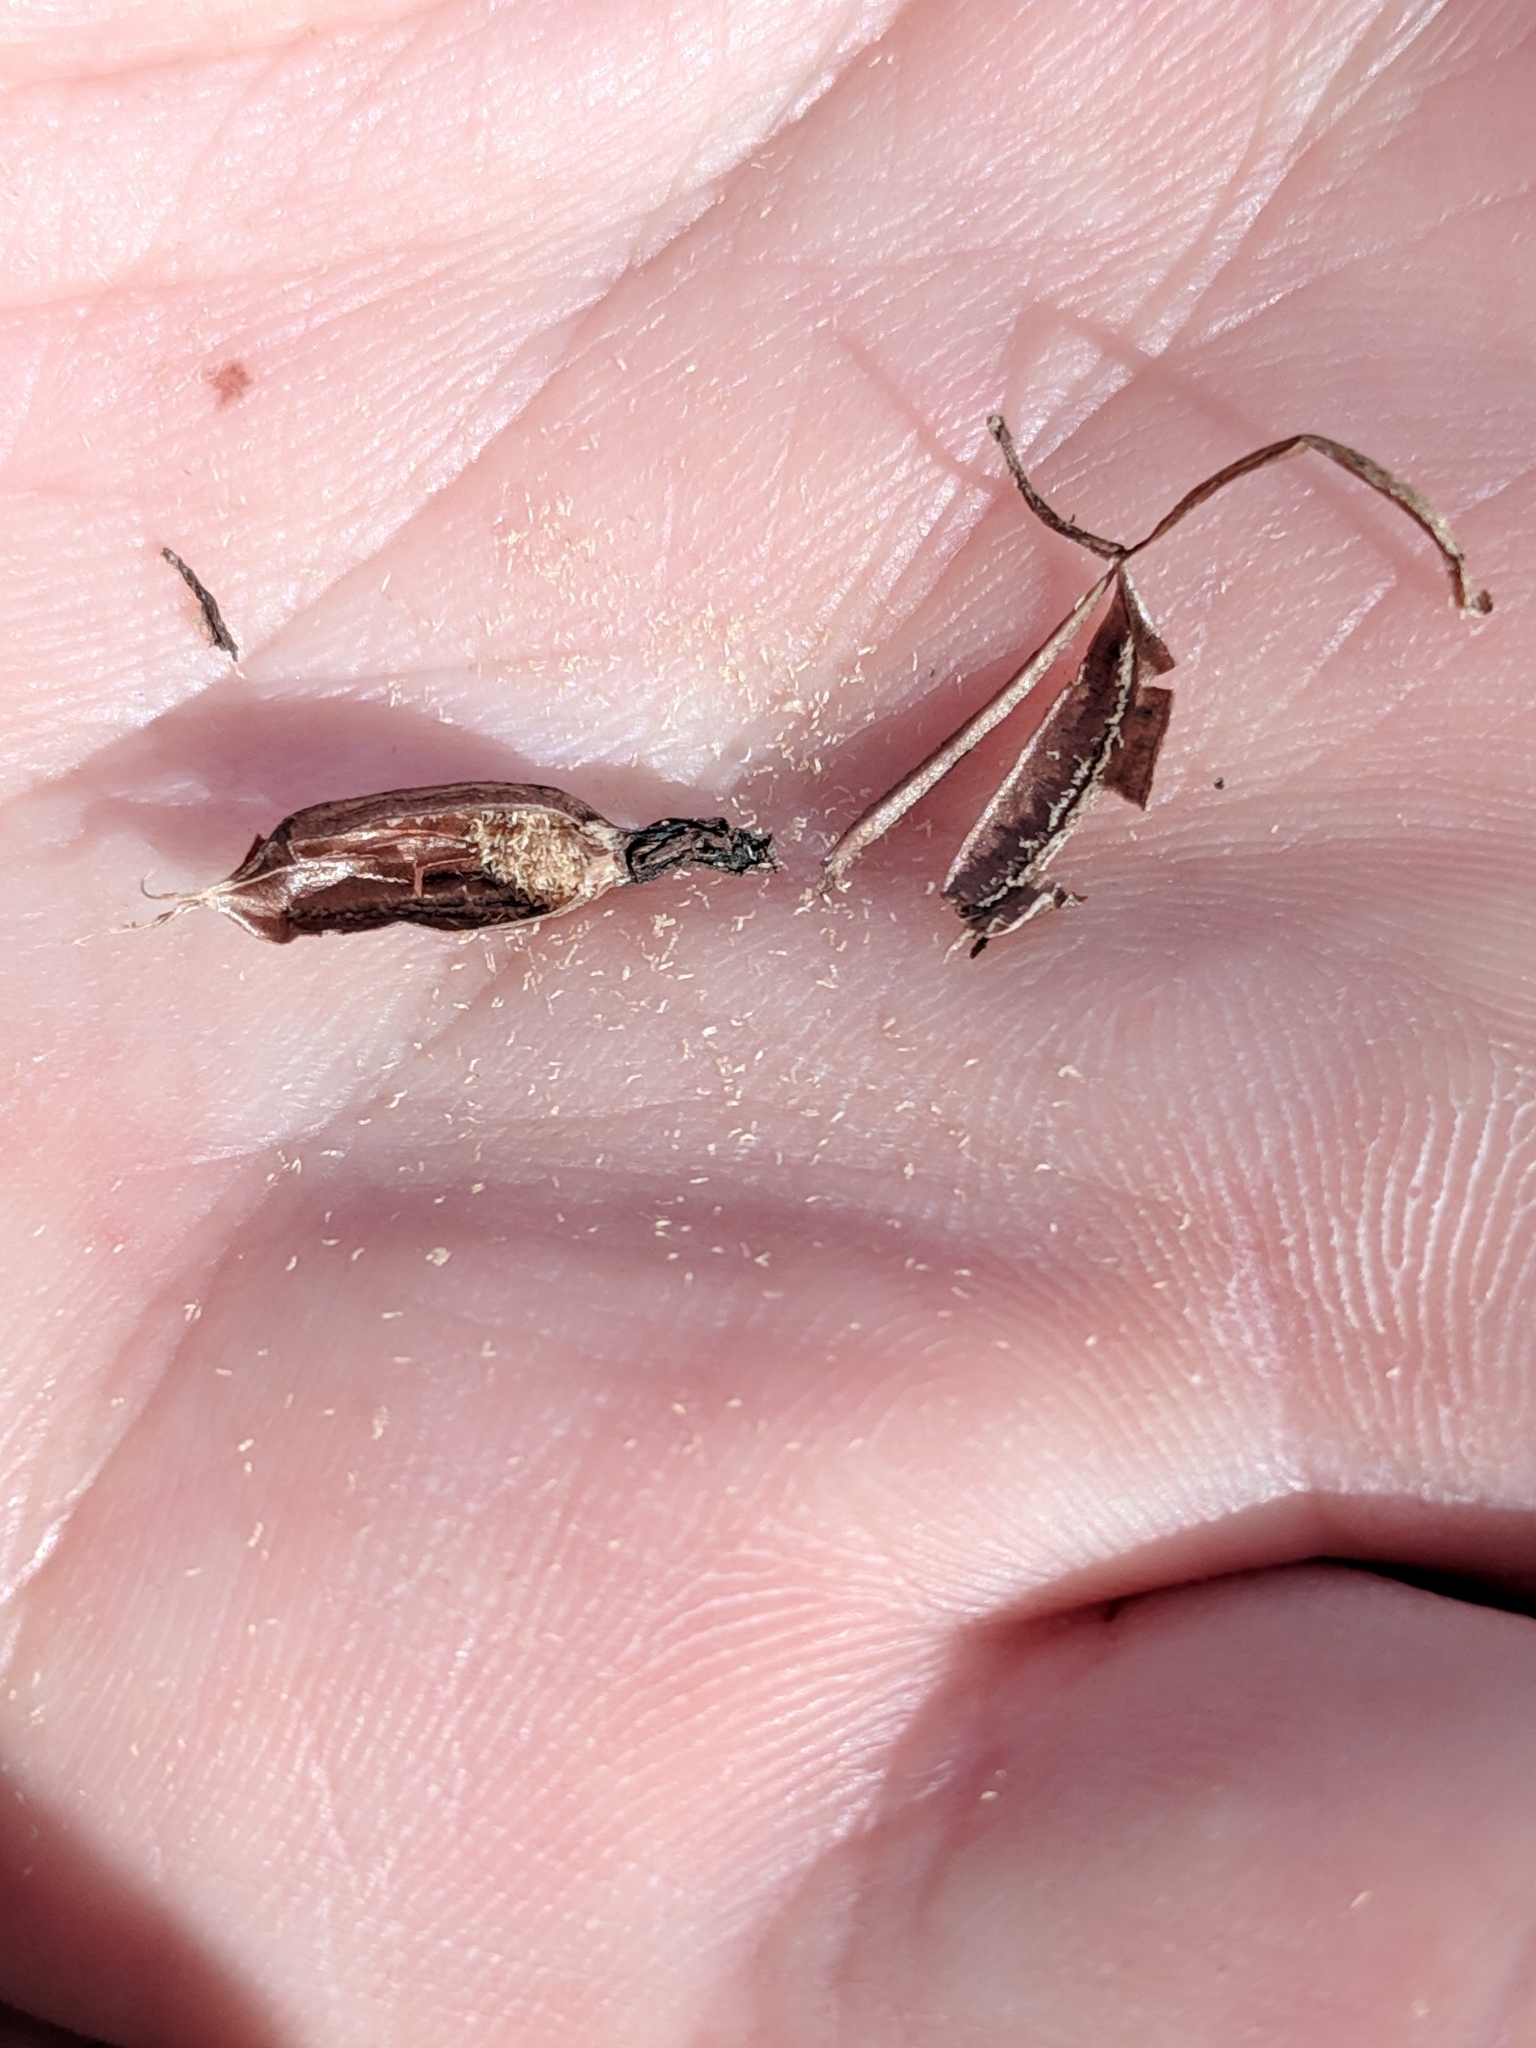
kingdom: Plantae
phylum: Tracheophyta
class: Liliopsida
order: Asparagales
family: Orchidaceae
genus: Tipularia
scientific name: Tipularia discolor
